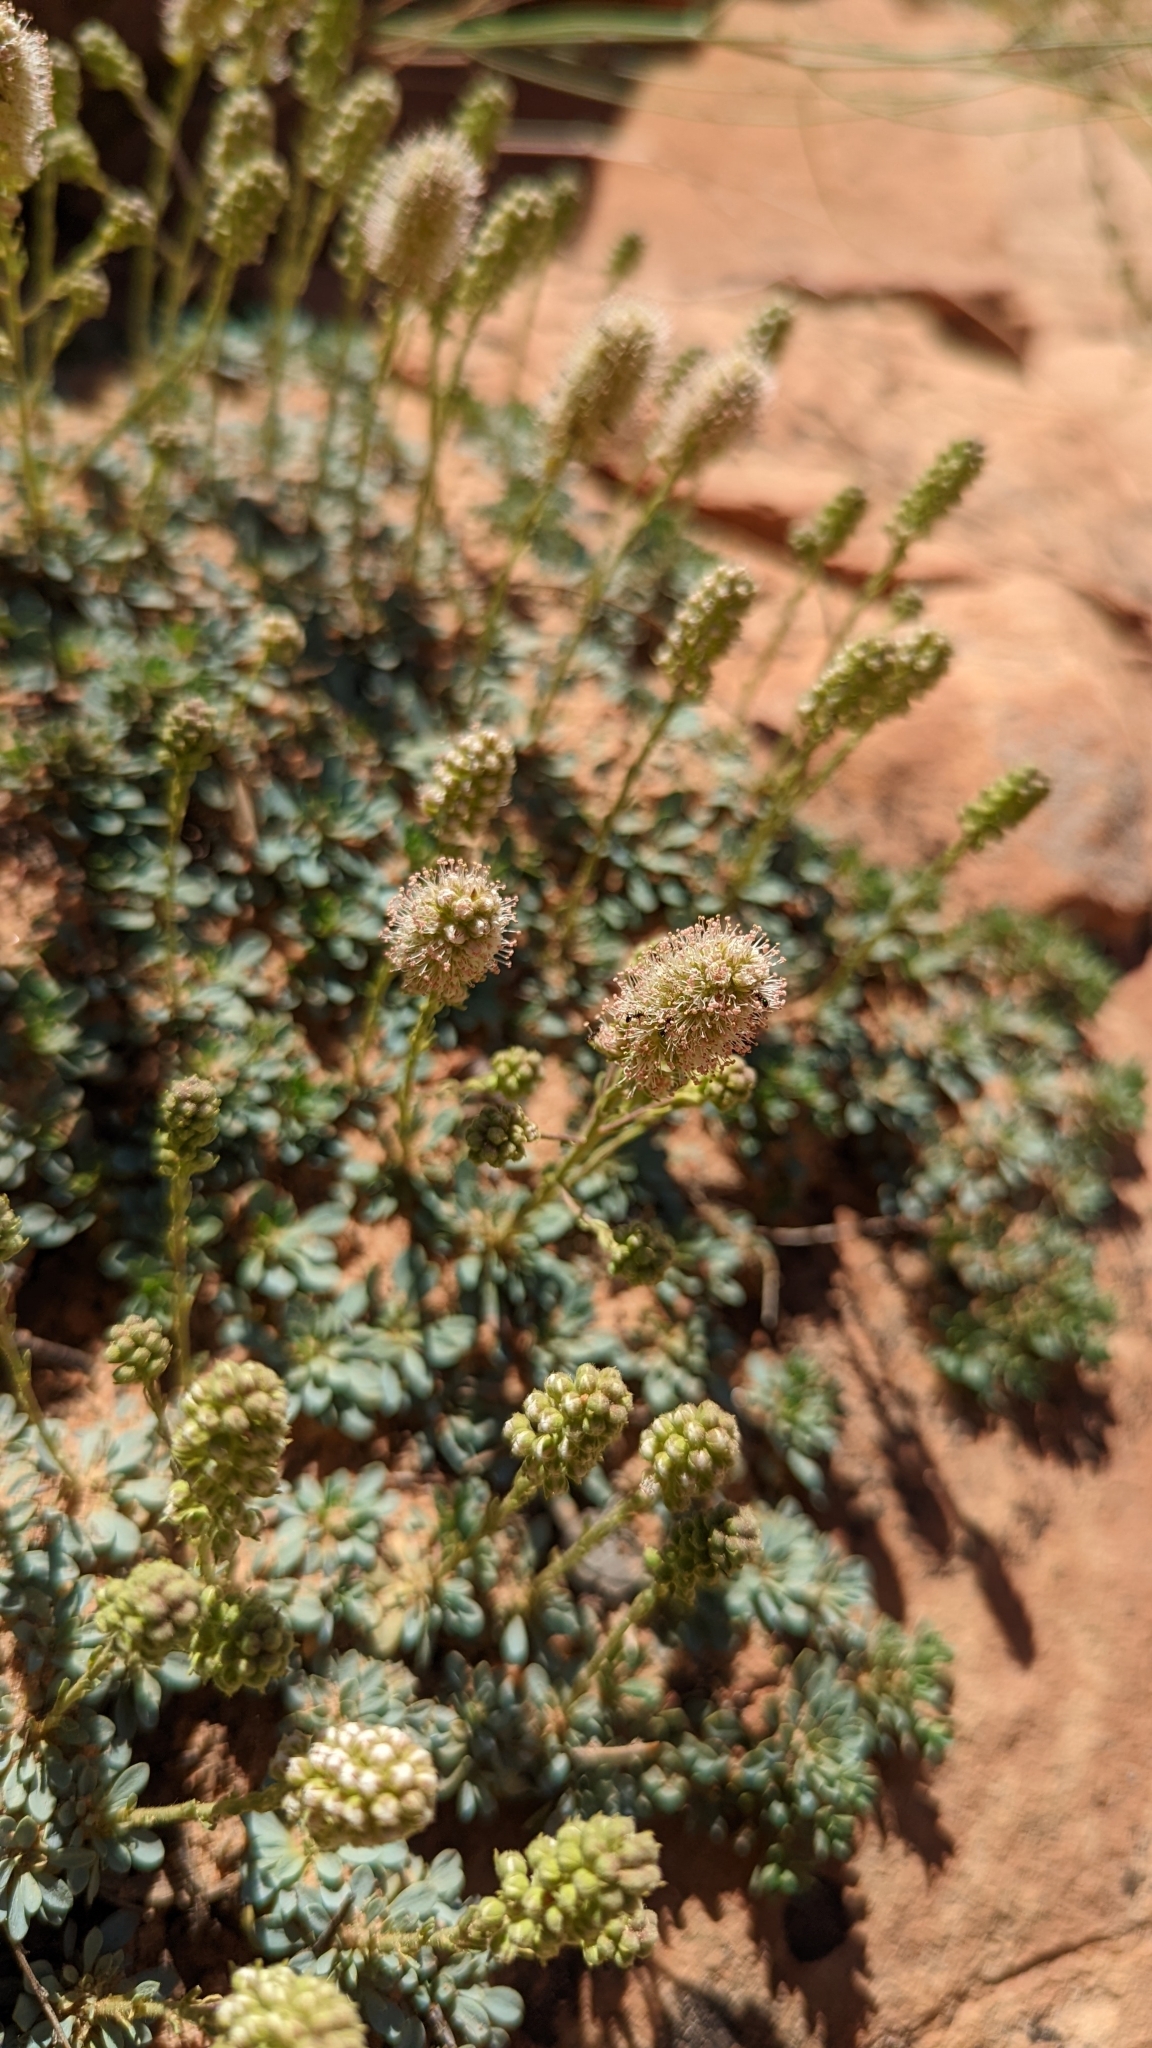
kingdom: Plantae
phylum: Tracheophyta
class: Magnoliopsida
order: Rosales
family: Rosaceae
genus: Petrophytum
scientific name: Petrophytum caespitosum
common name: Mat rockspirea
